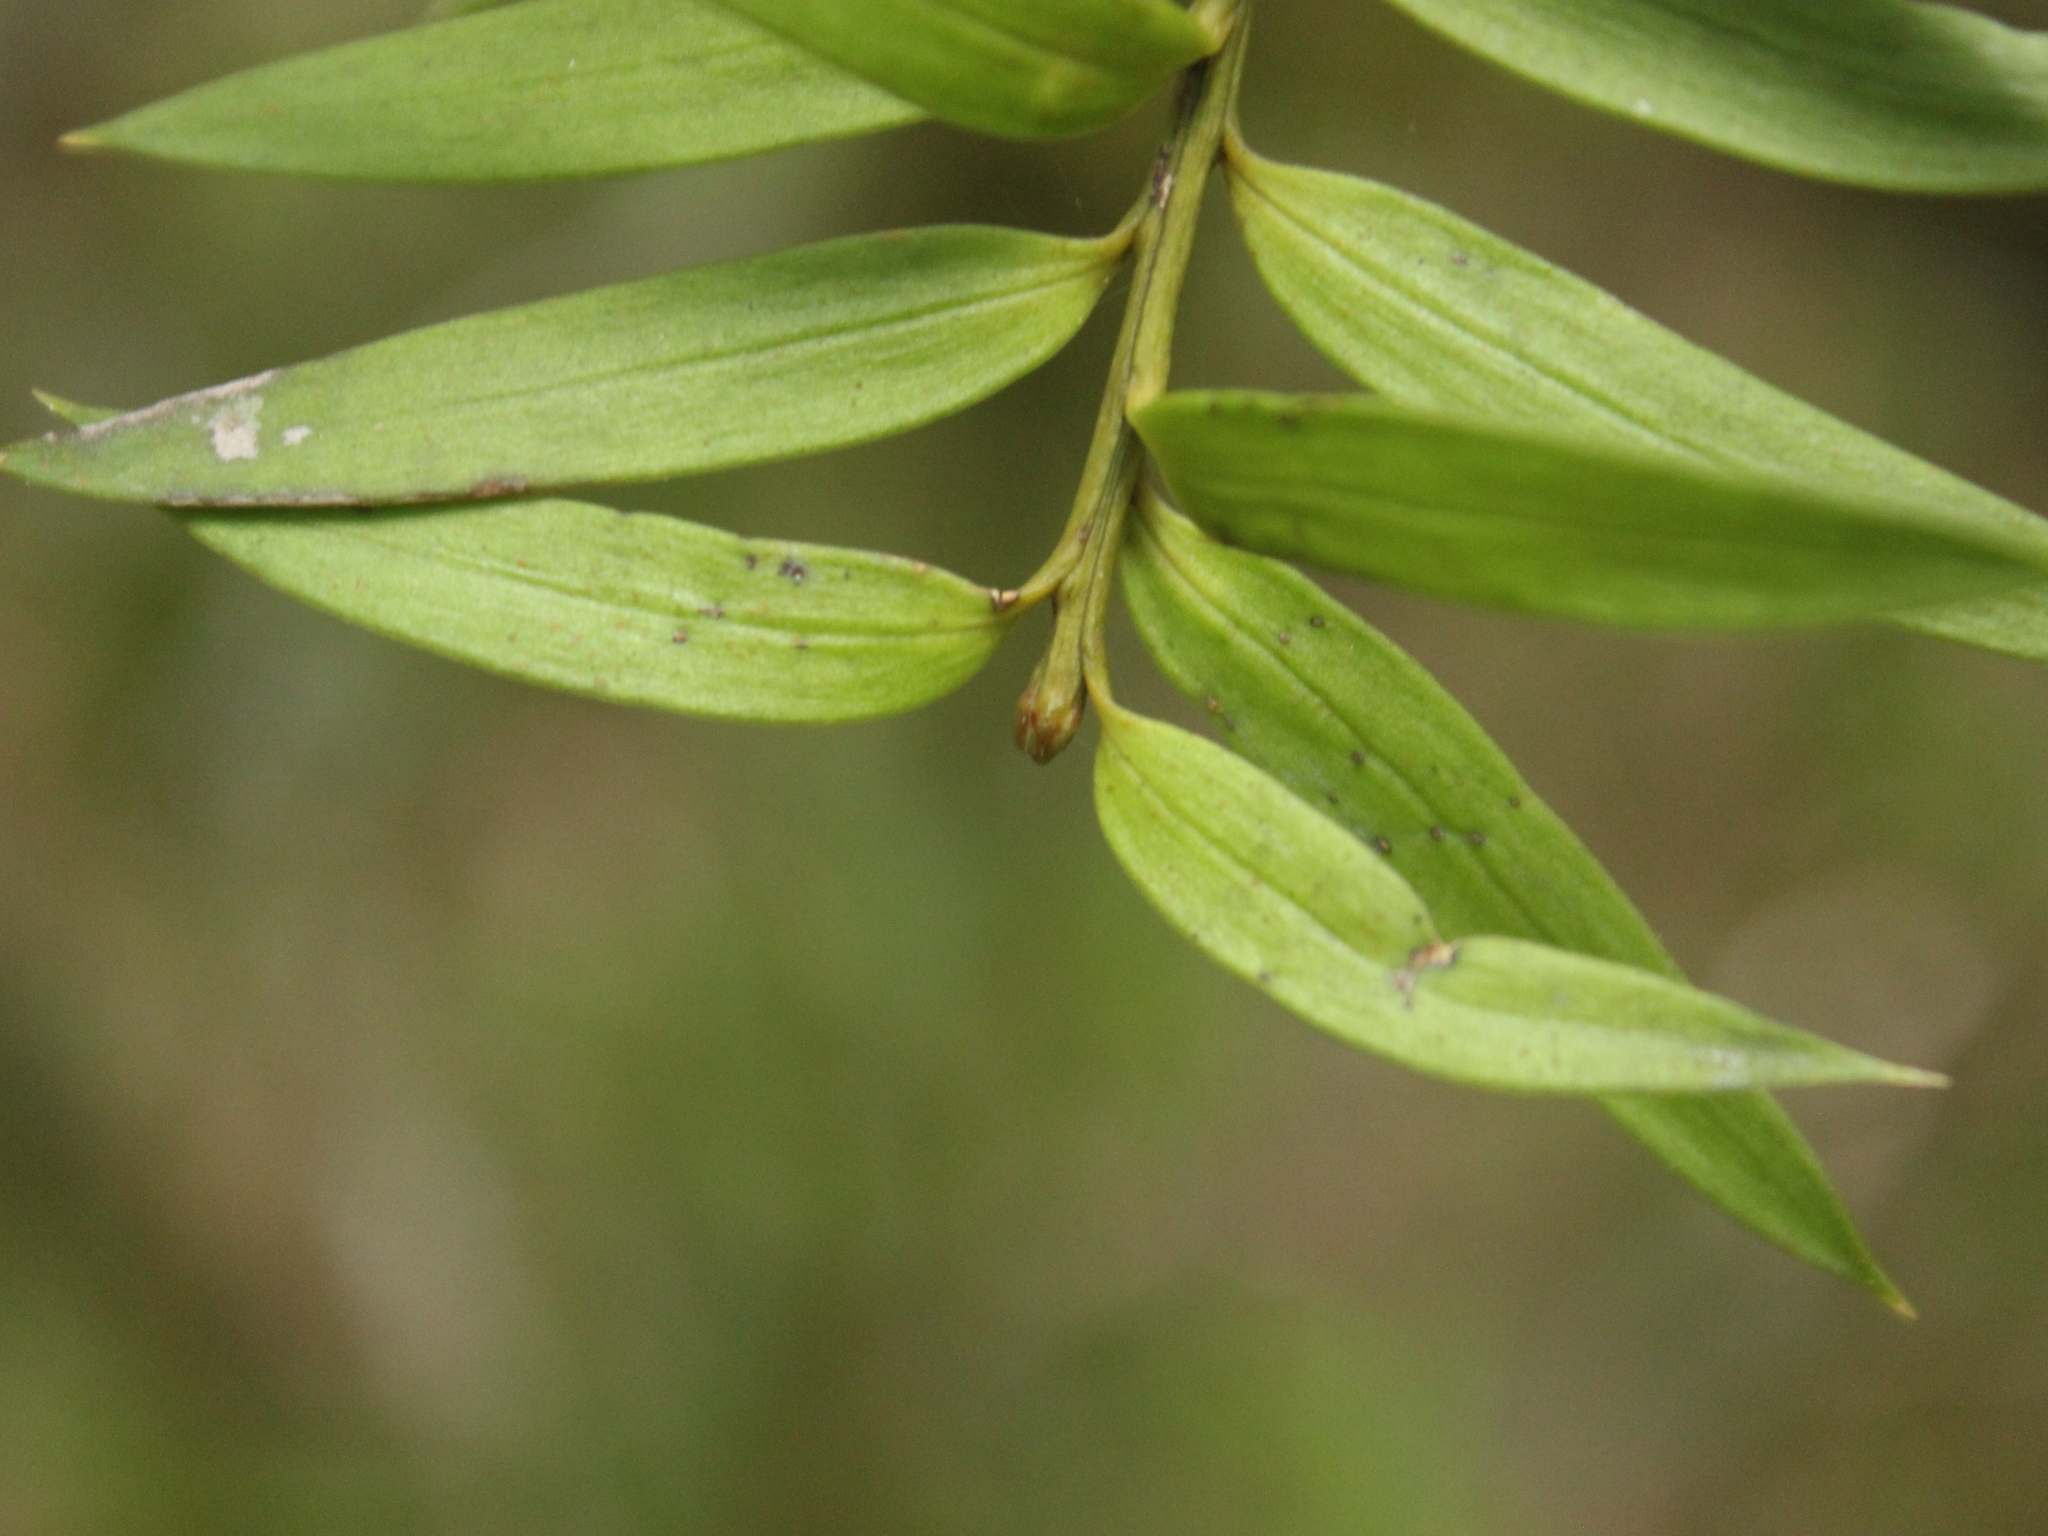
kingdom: Plantae
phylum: Tracheophyta
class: Pinopsida
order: Pinales
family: Podocarpaceae
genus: Podocarpus
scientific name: Podocarpus laetus
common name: Hall's totara
